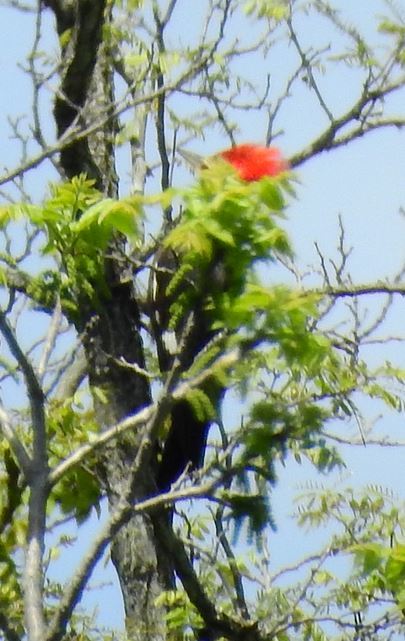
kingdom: Animalia
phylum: Chordata
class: Aves
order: Piciformes
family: Picidae
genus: Dryocopus
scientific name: Dryocopus pileatus
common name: Pileated woodpecker
